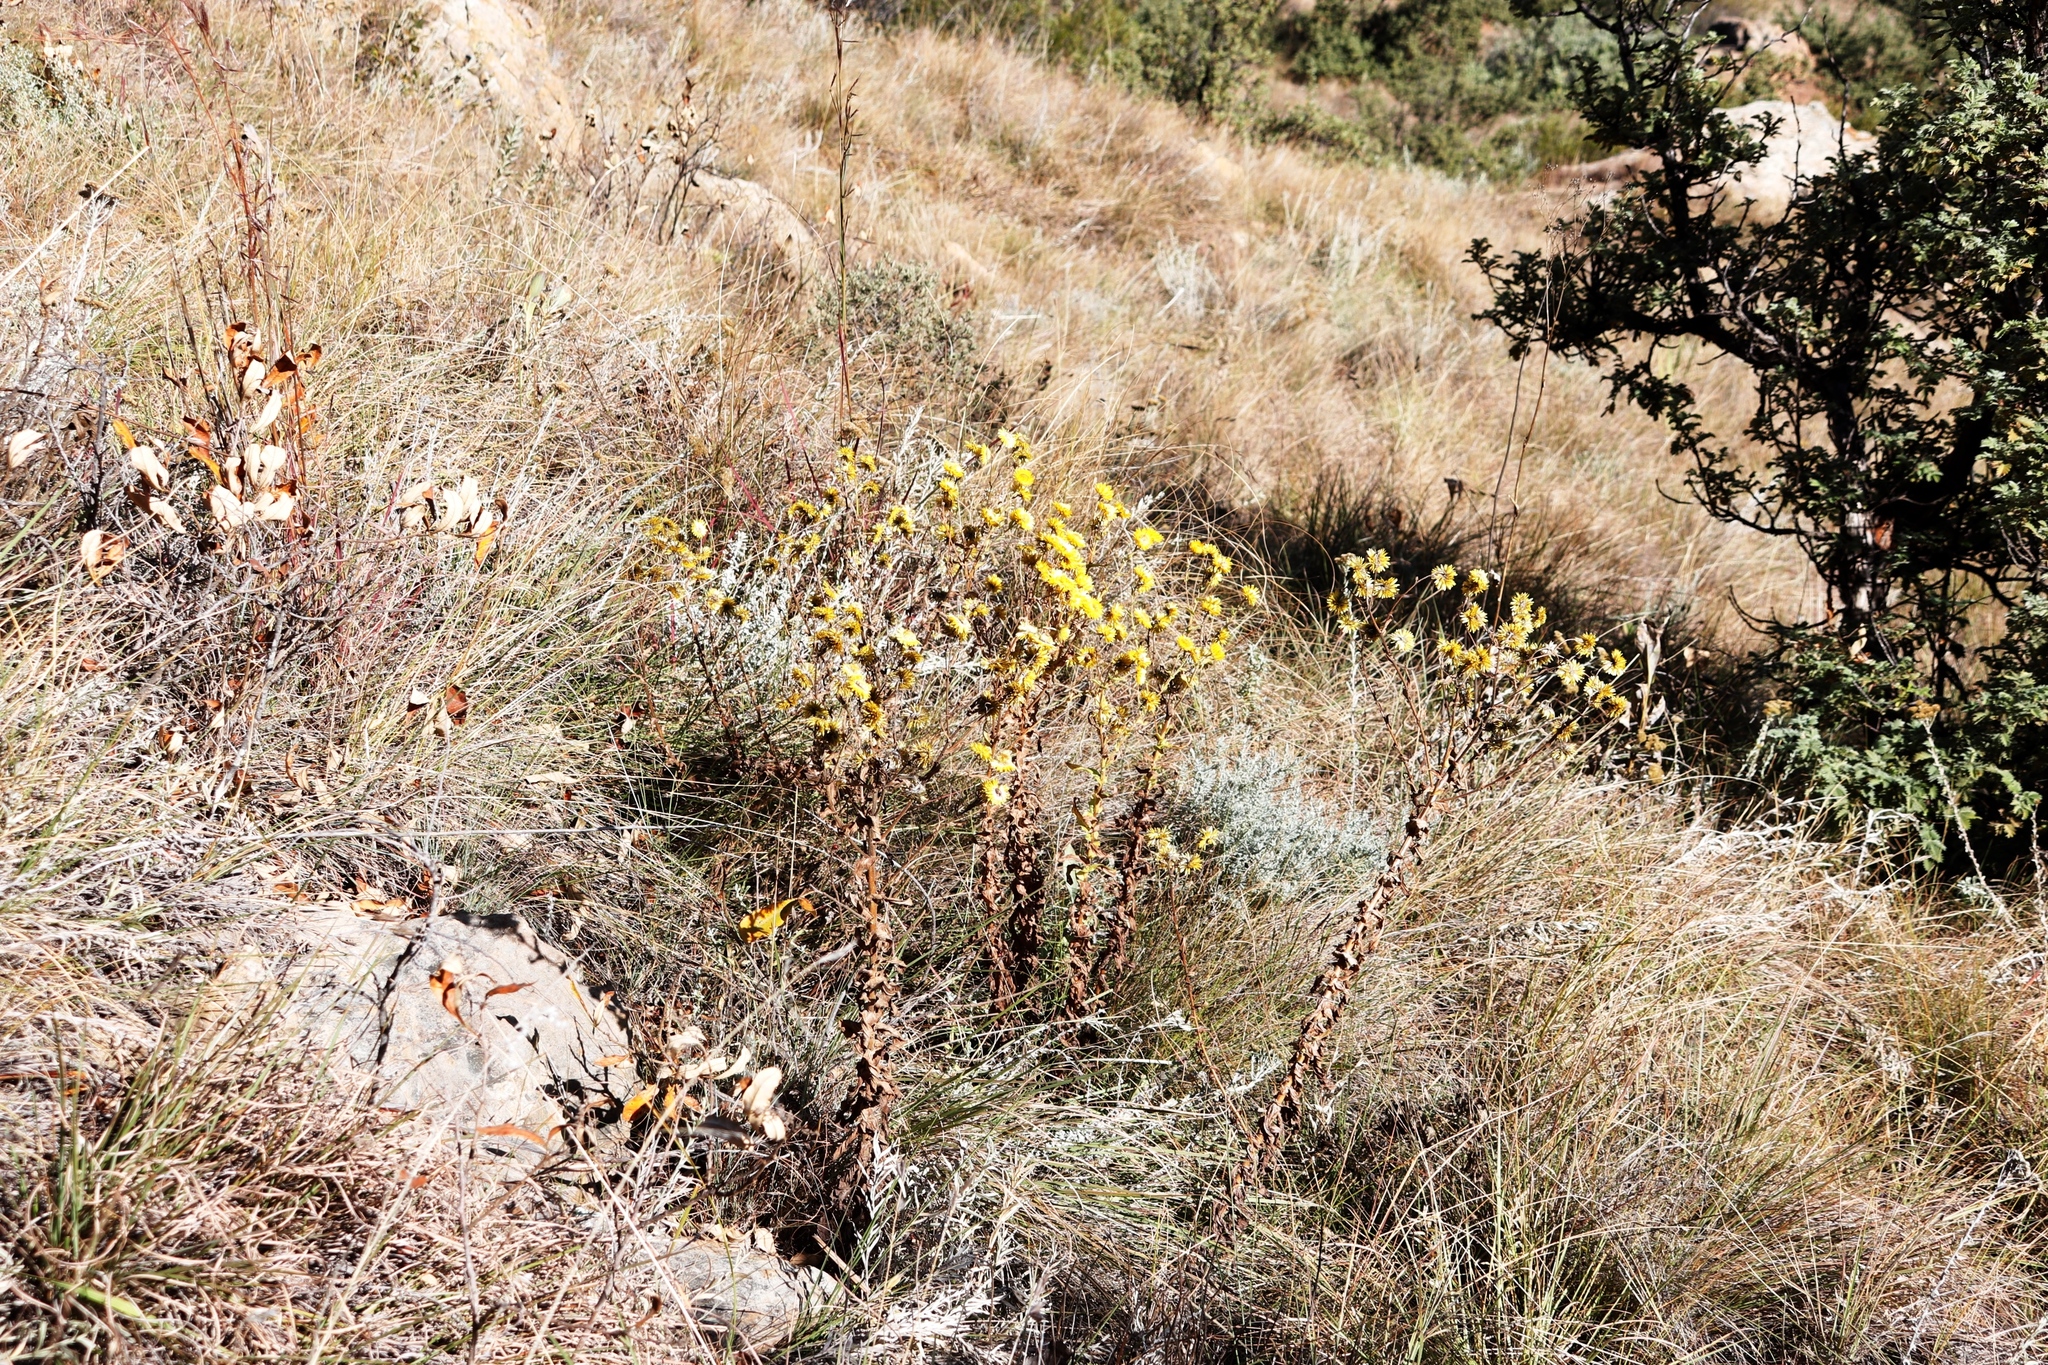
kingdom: Plantae
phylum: Tracheophyta
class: Magnoliopsida
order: Asterales
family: Asteraceae
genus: Helichrysum
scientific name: Helichrysum cooperi
